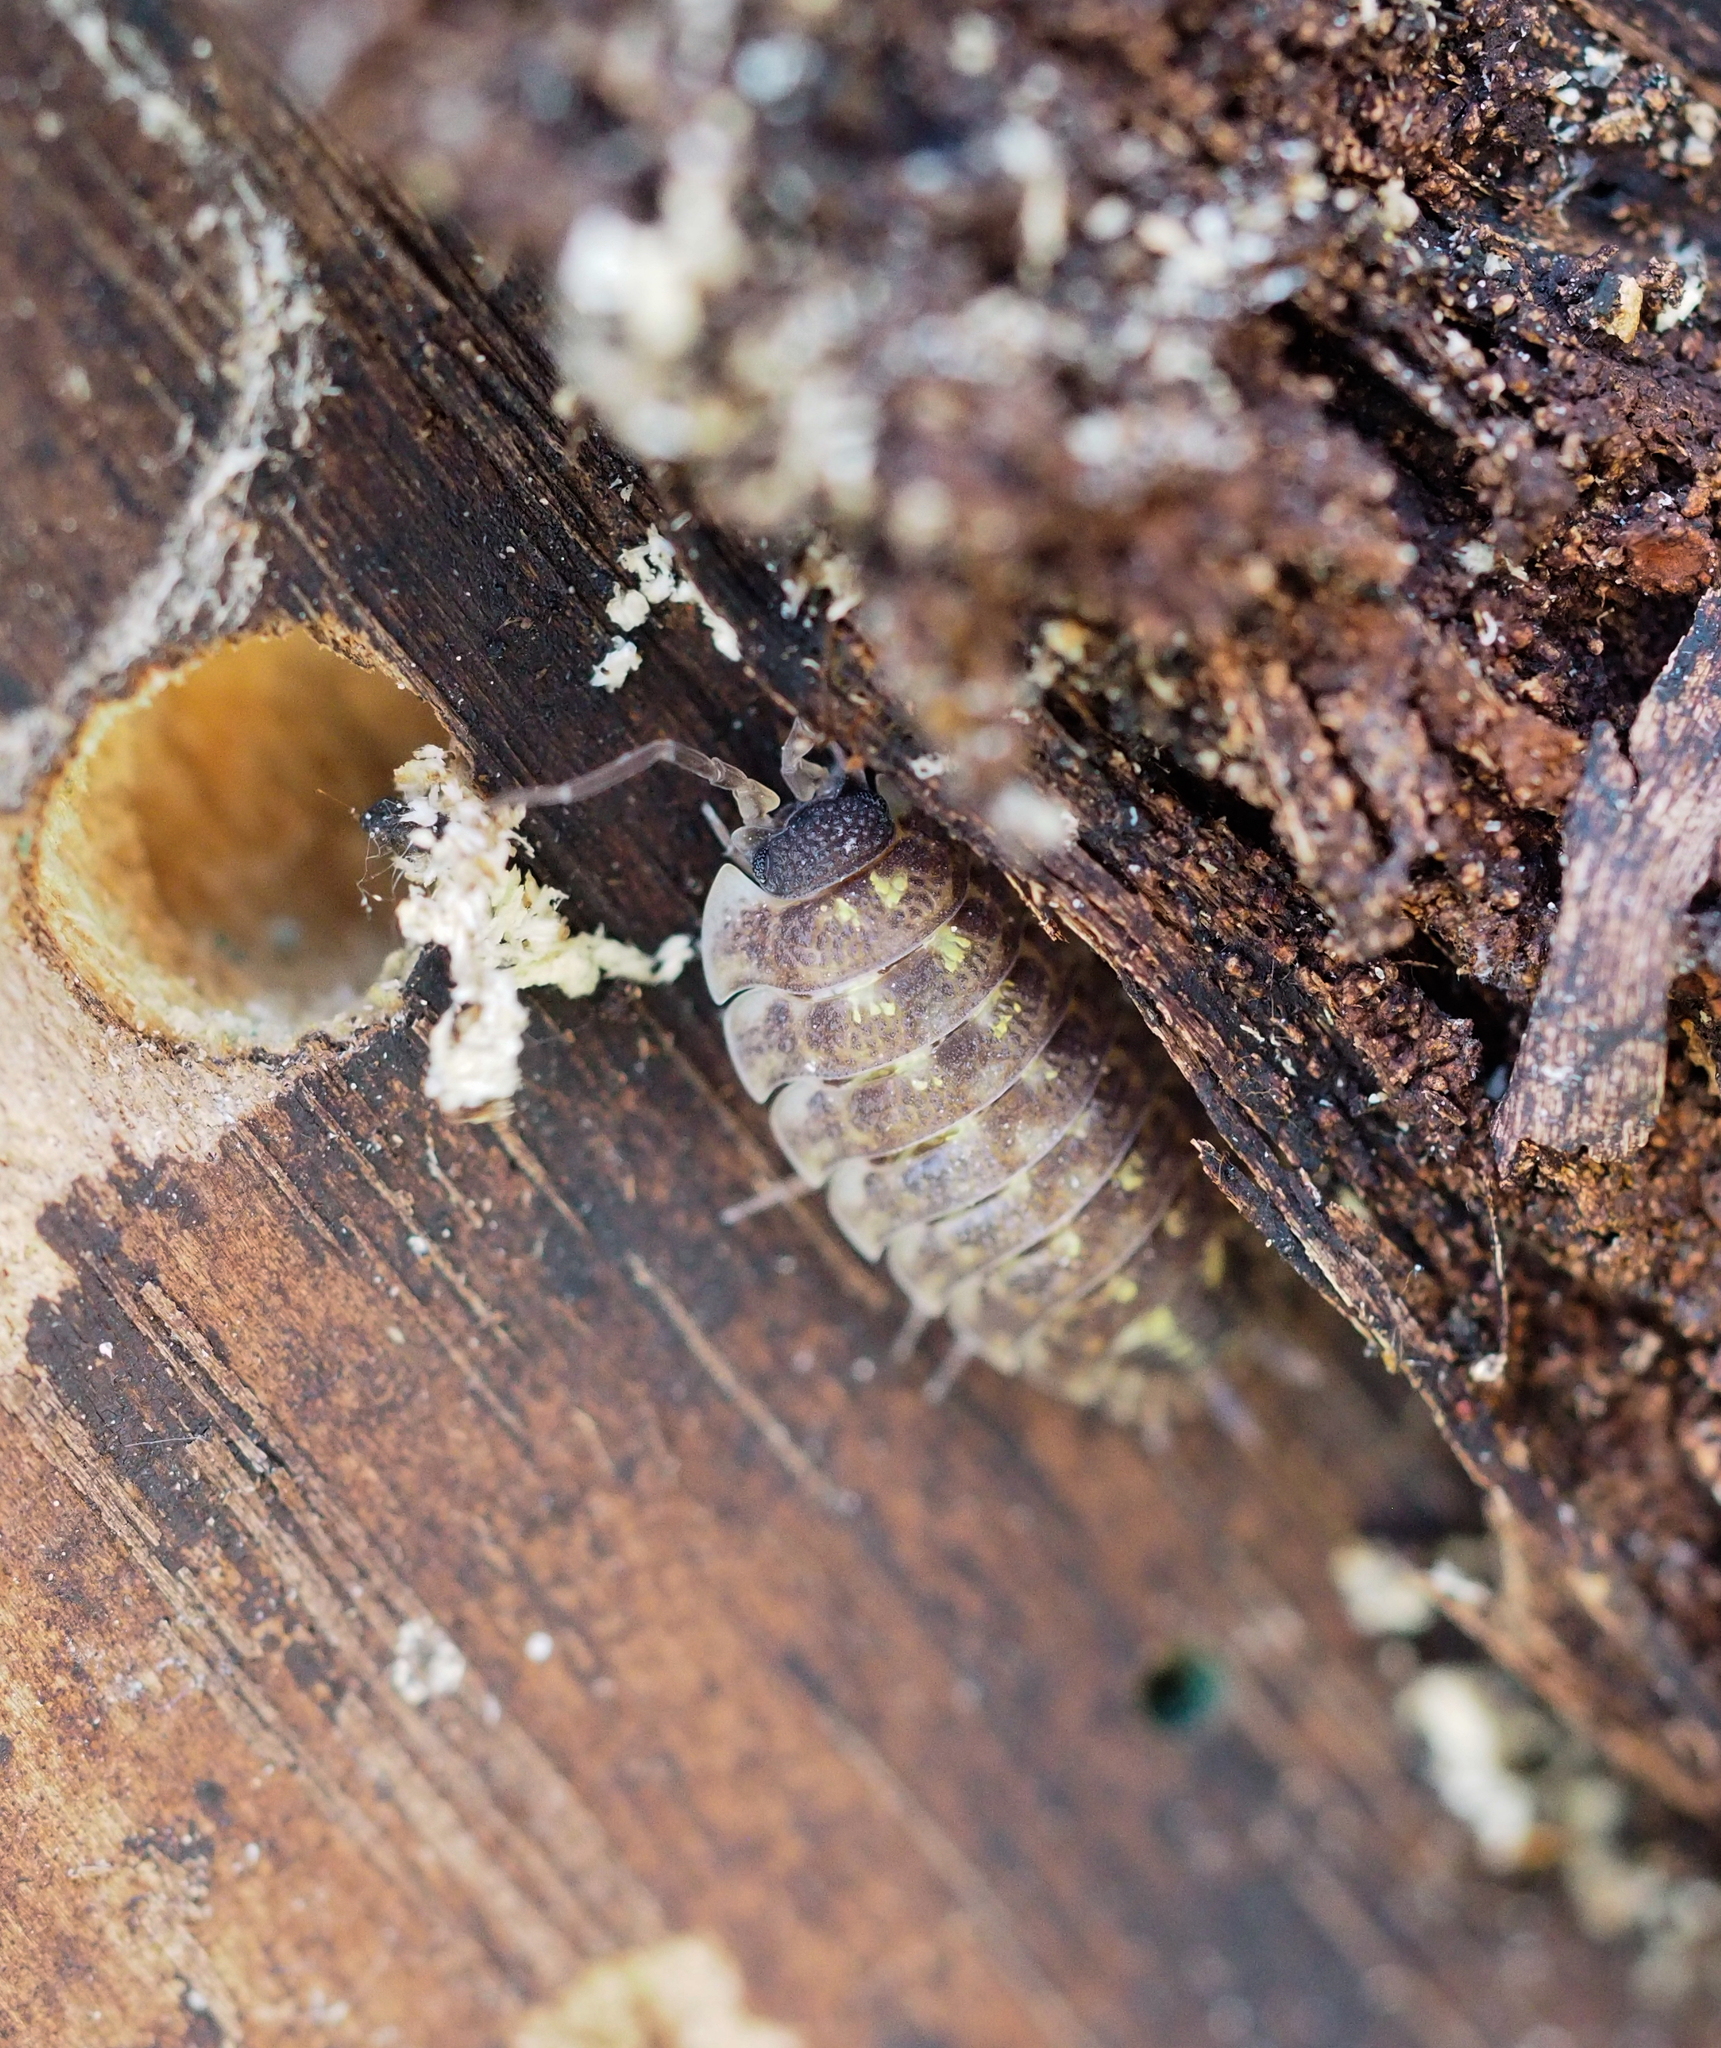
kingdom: Animalia
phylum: Arthropoda
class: Malacostraca
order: Isopoda
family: Porcellionidae
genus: Porcellio
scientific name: Porcellio spinicornis
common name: Painted woodlouse
